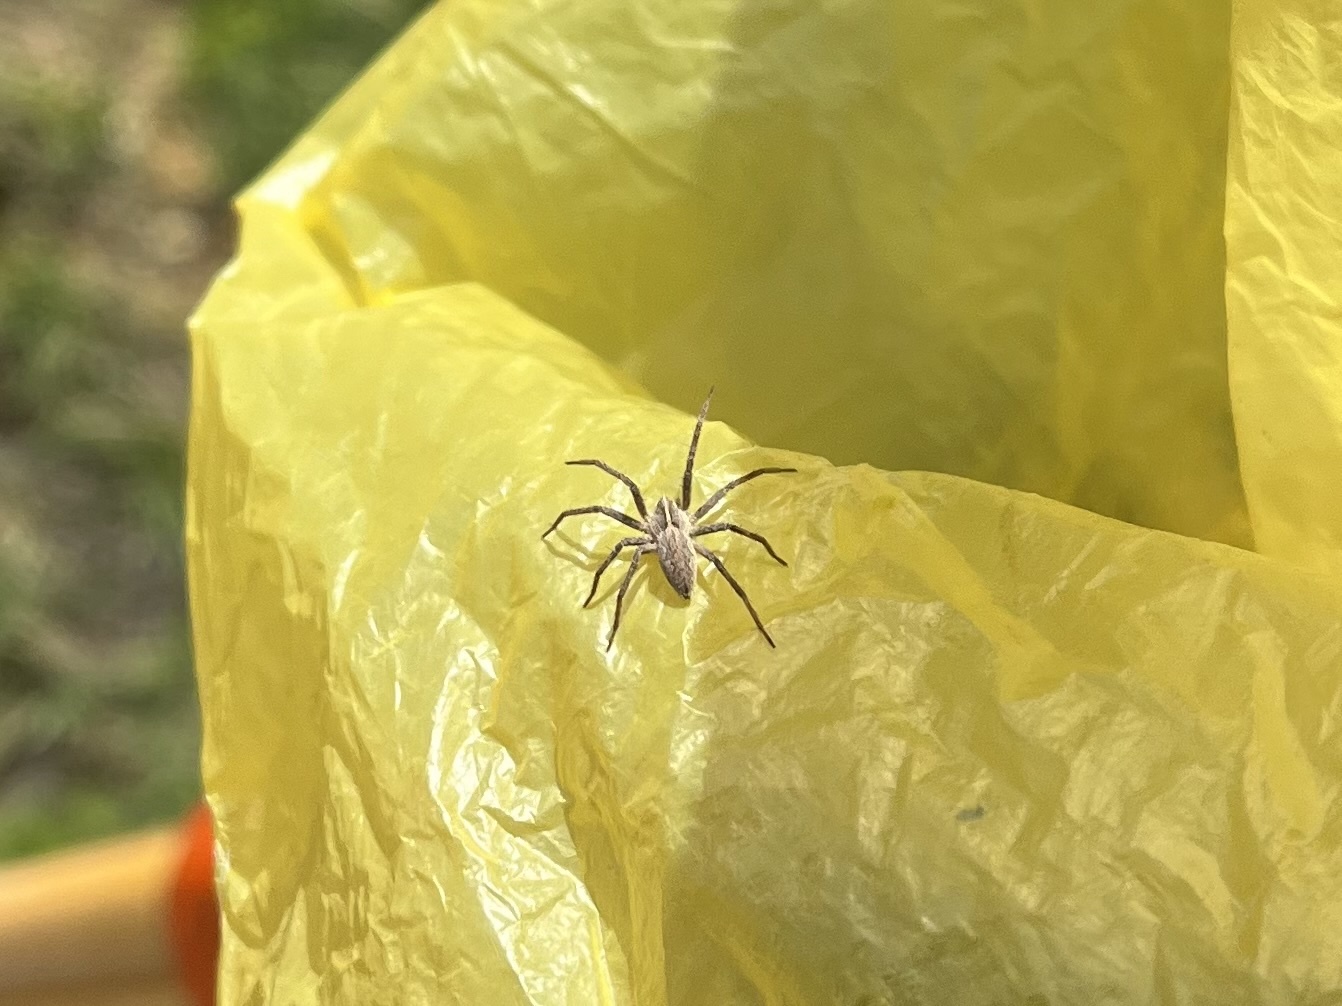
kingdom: Animalia
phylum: Arthropoda
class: Arachnida
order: Araneae
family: Pisauridae
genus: Pisaura
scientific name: Pisaura mirabilis
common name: Tent spider
